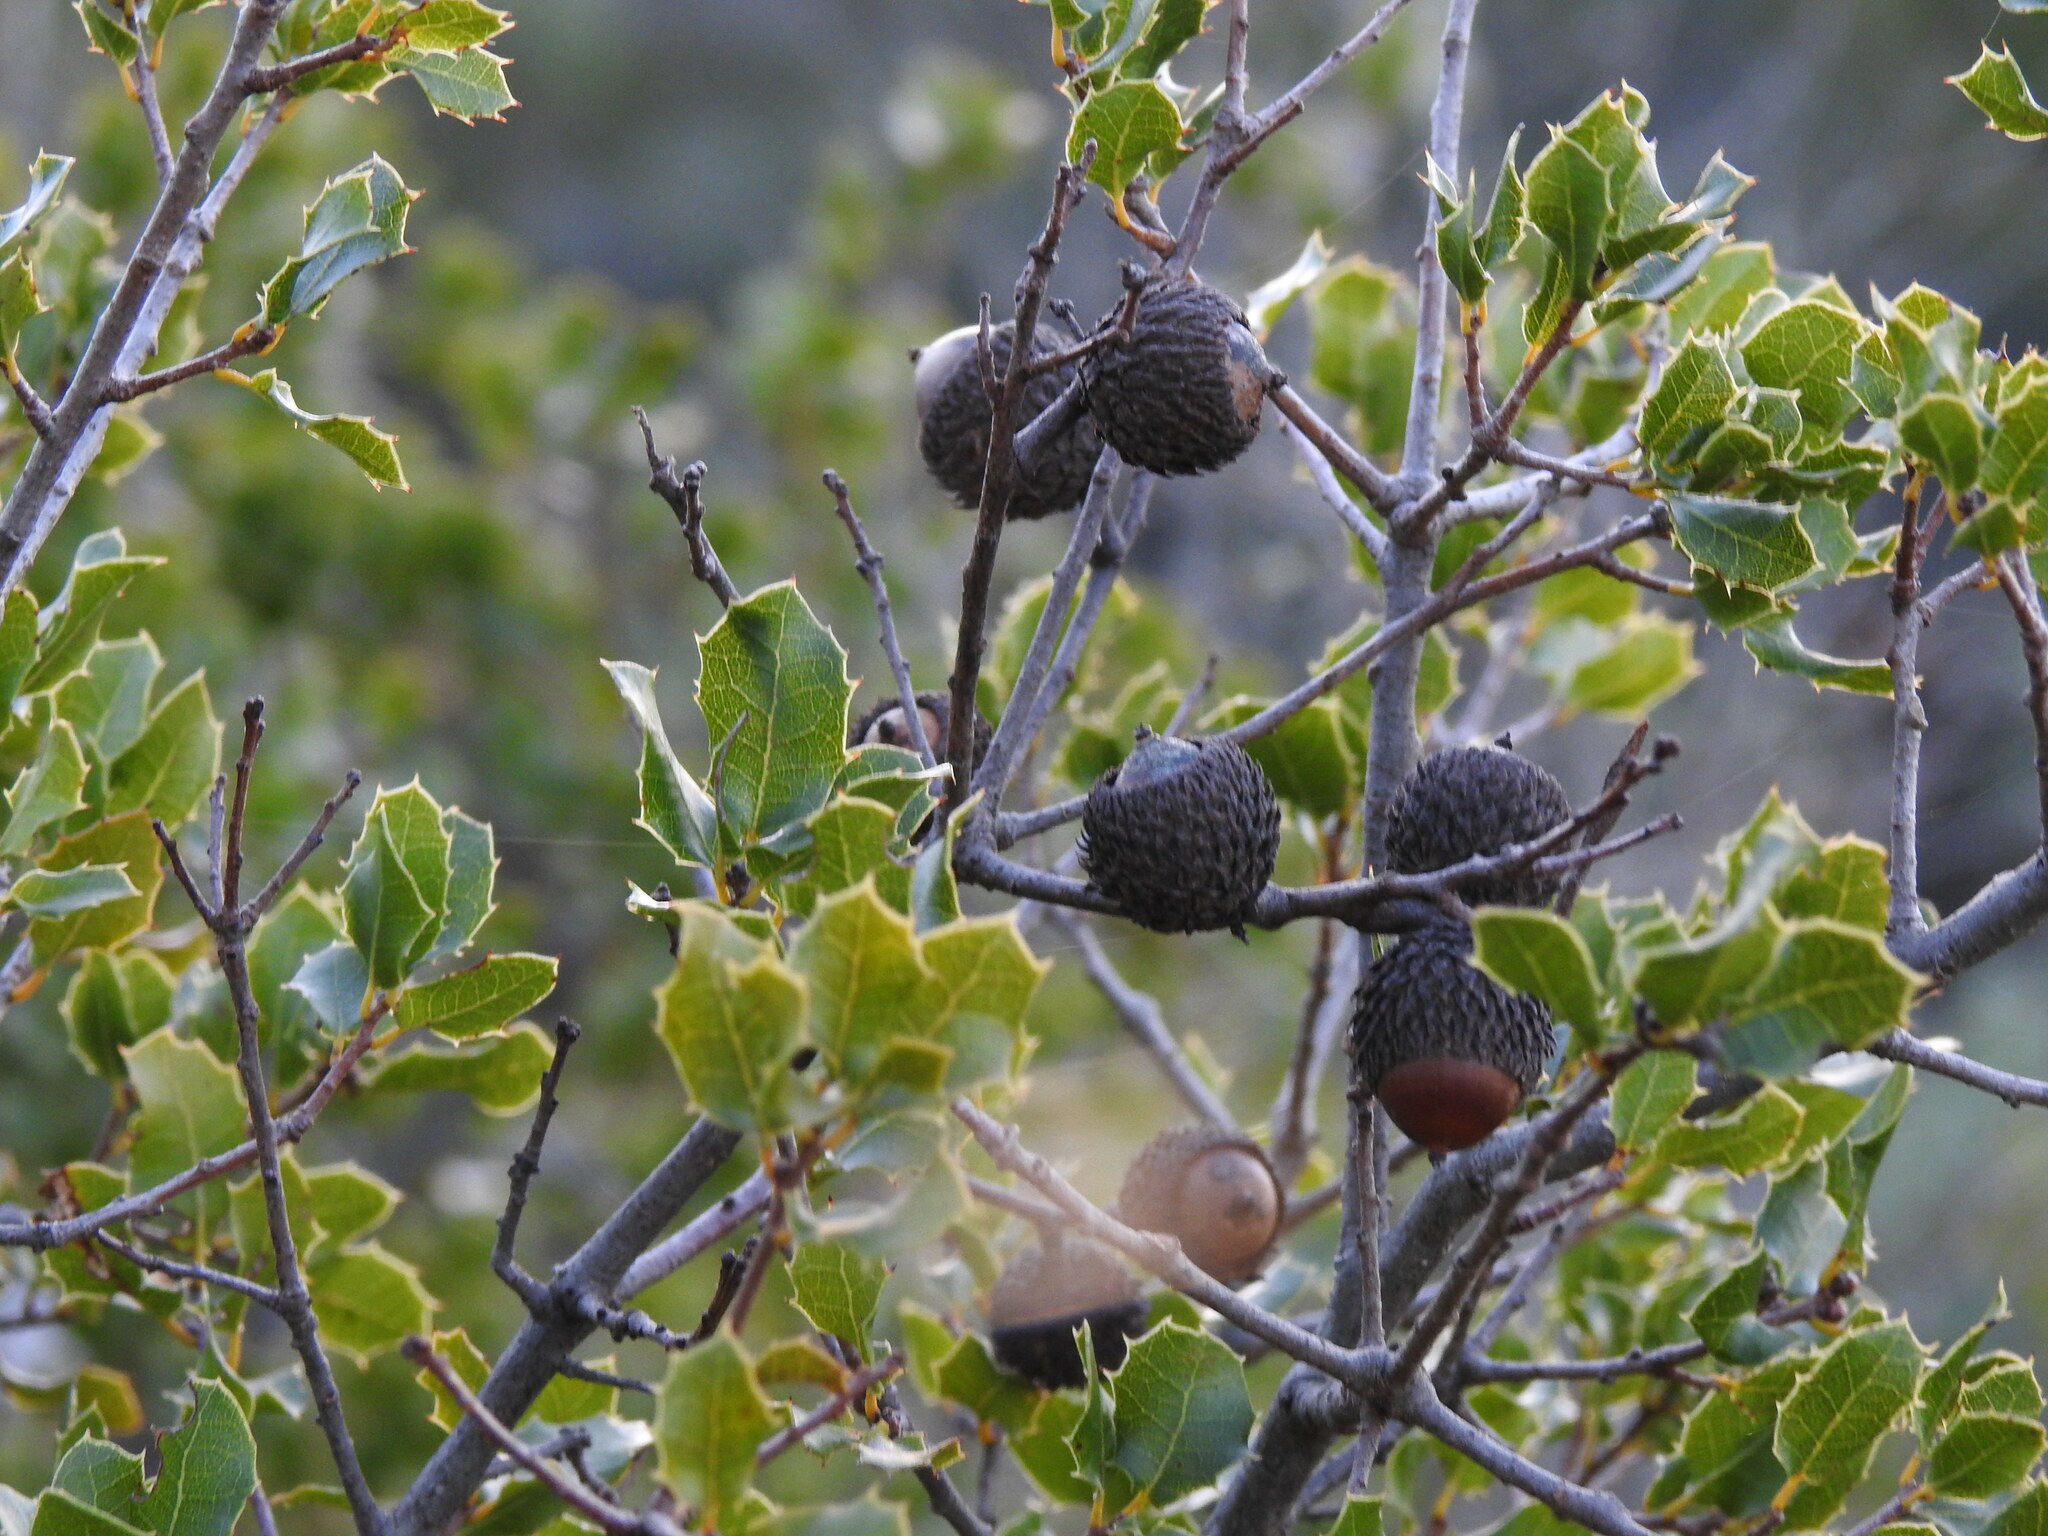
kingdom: Plantae
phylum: Tracheophyta
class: Magnoliopsida
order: Fagales
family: Fagaceae
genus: Quercus
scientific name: Quercus coccifera
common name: Kermes oak
